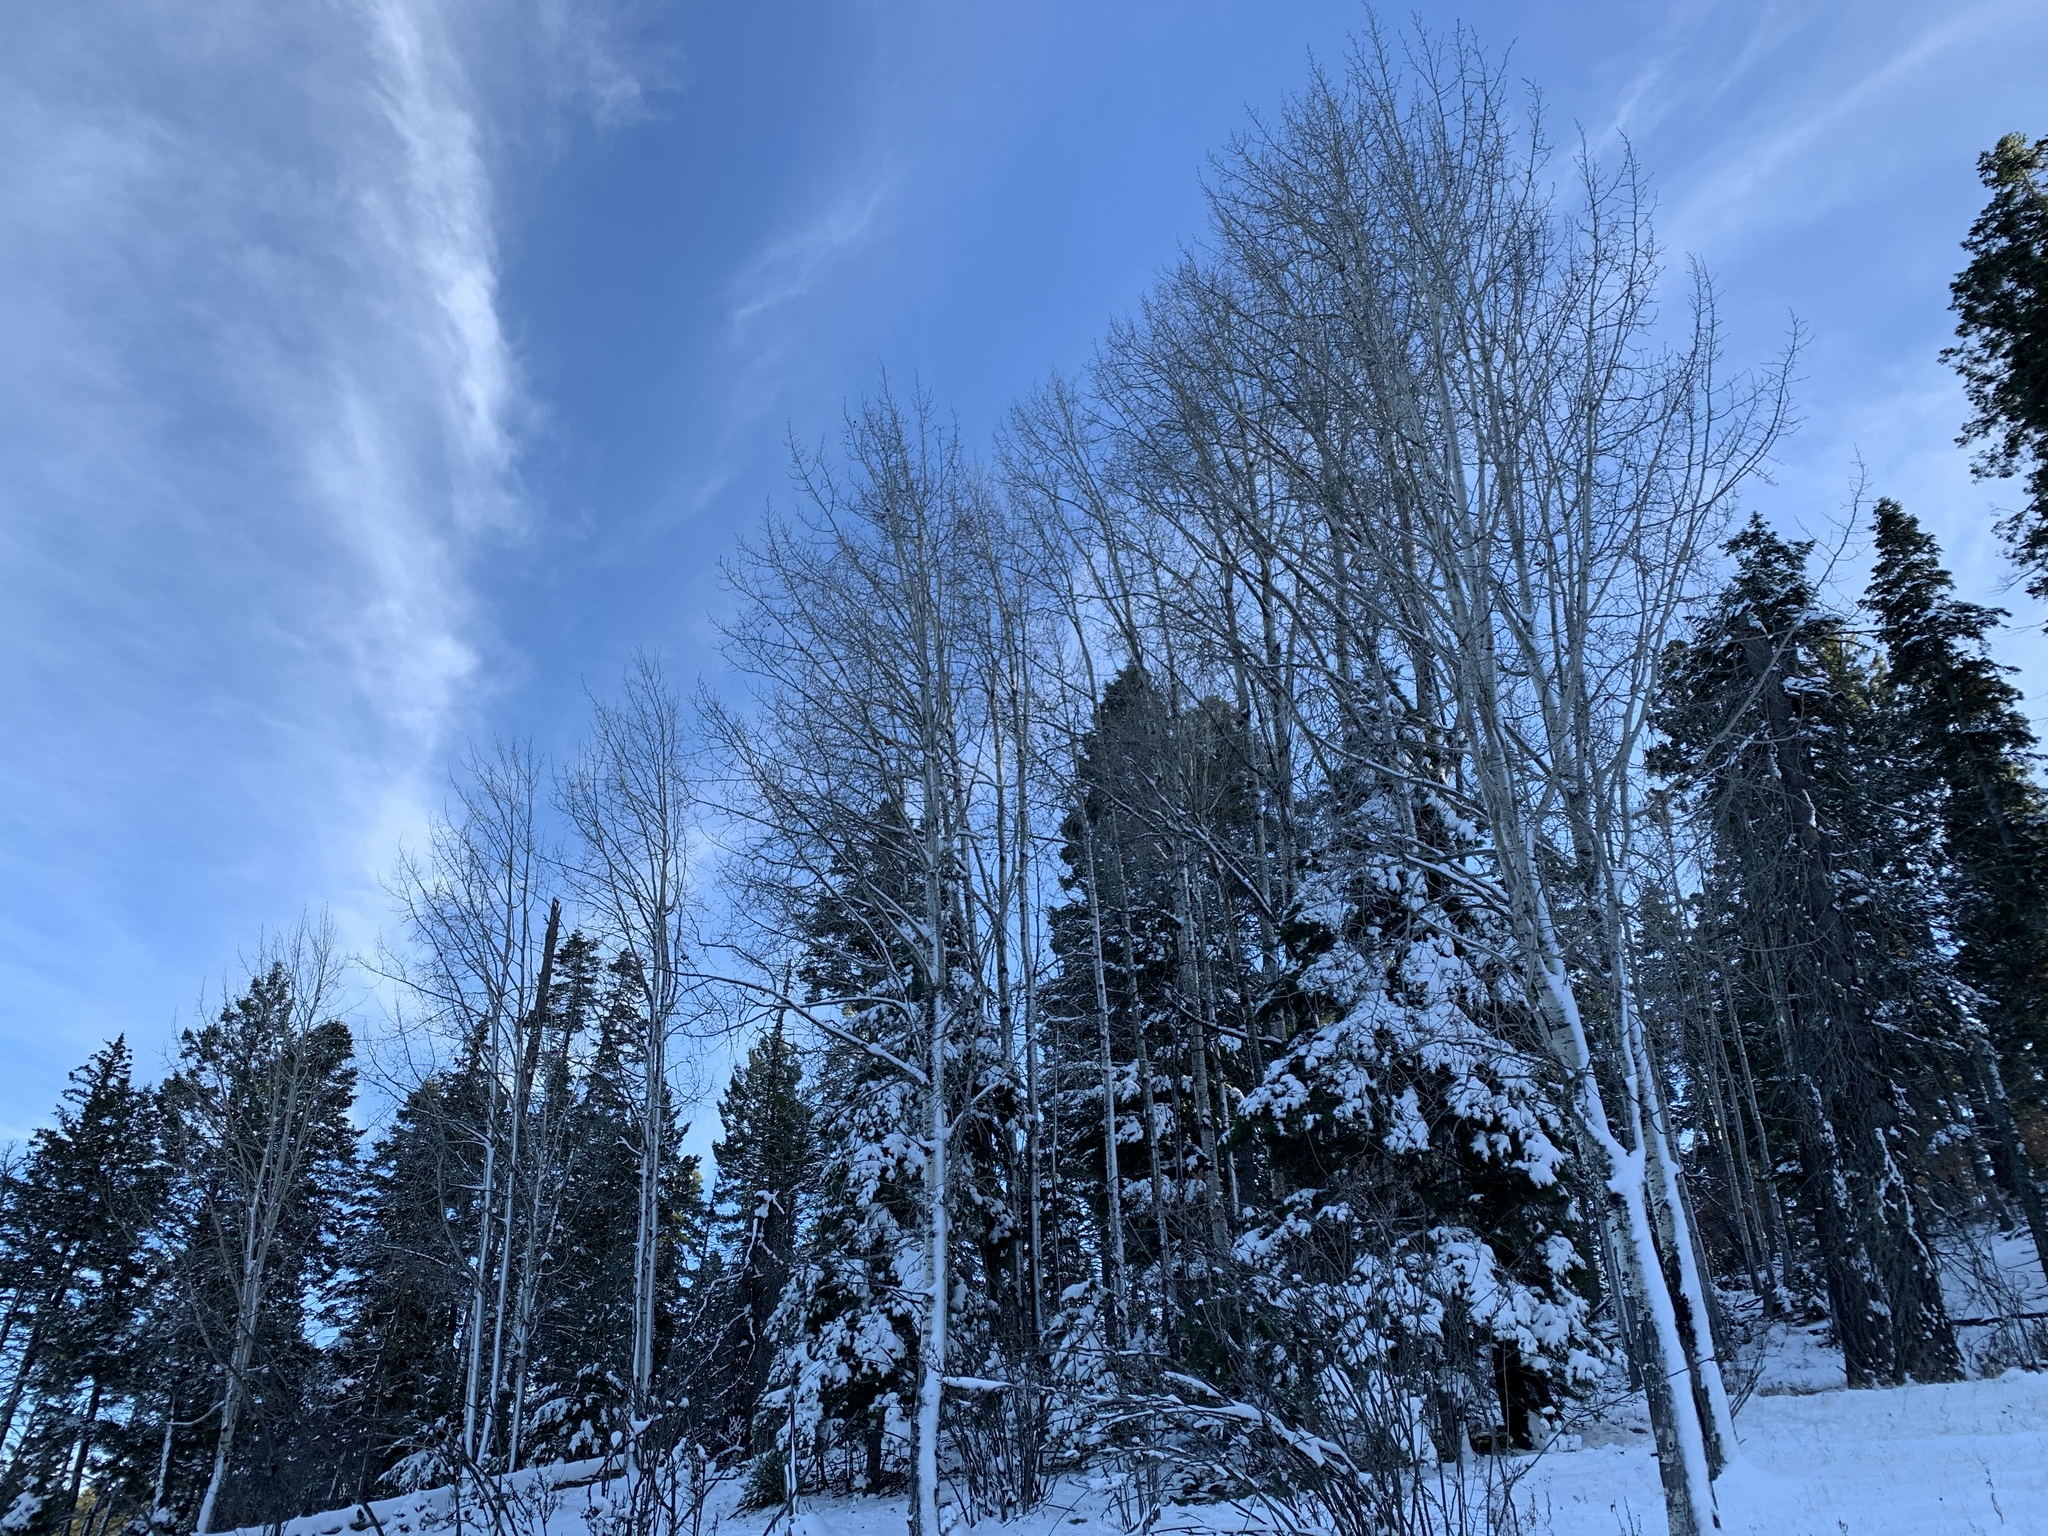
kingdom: Plantae
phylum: Tracheophyta
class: Magnoliopsida
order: Malpighiales
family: Salicaceae
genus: Populus
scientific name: Populus tremuloides
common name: Quaking aspen
